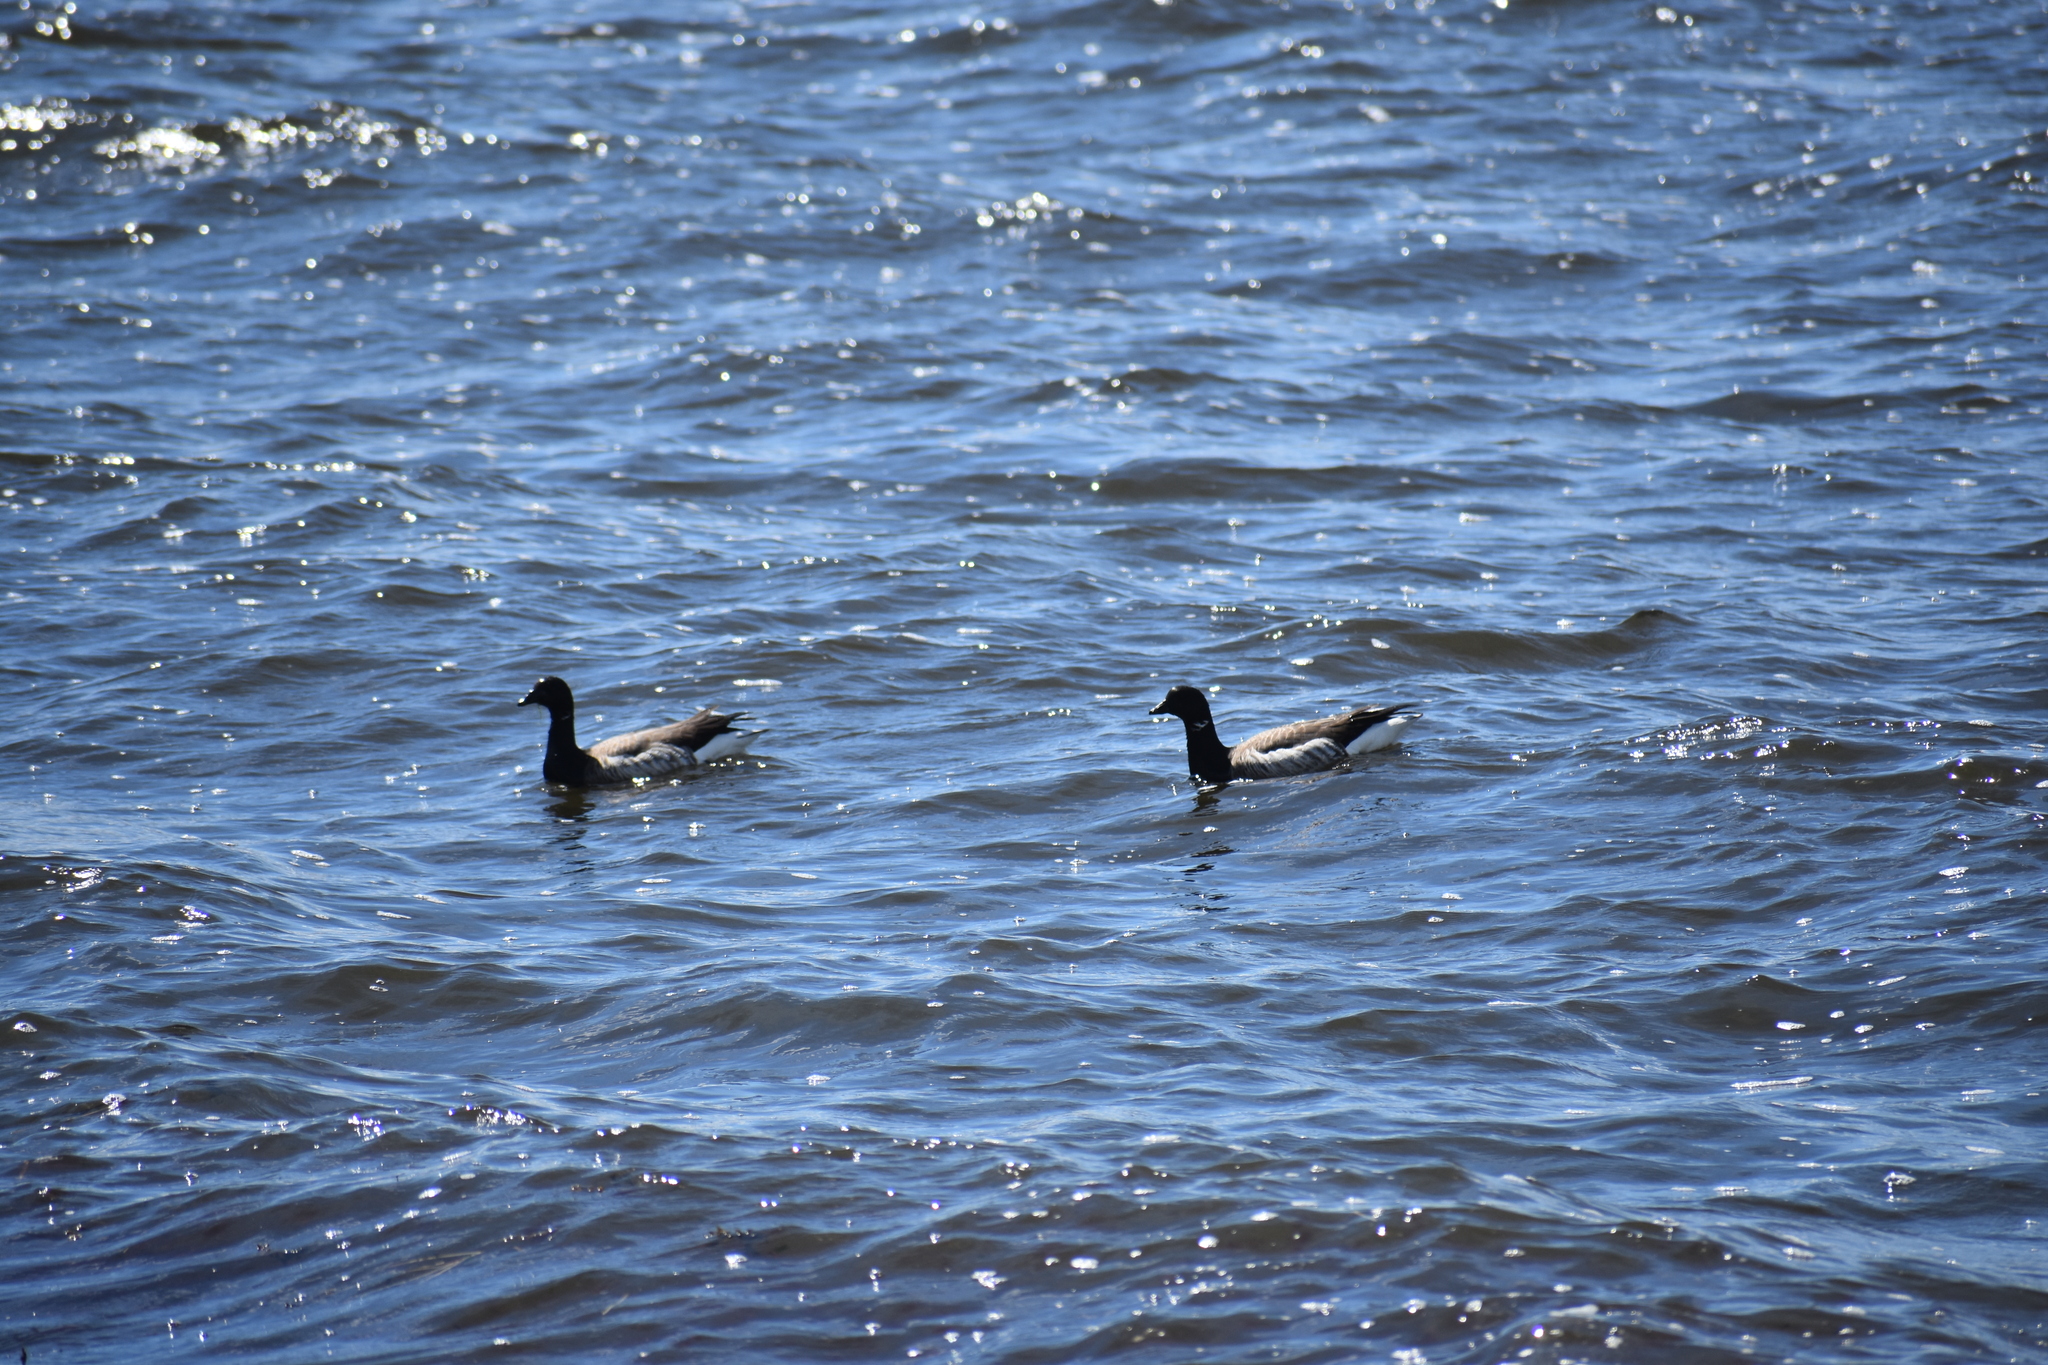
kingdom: Animalia
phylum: Chordata
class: Aves
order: Anseriformes
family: Anatidae
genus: Branta
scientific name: Branta bernicla
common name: Brant goose
